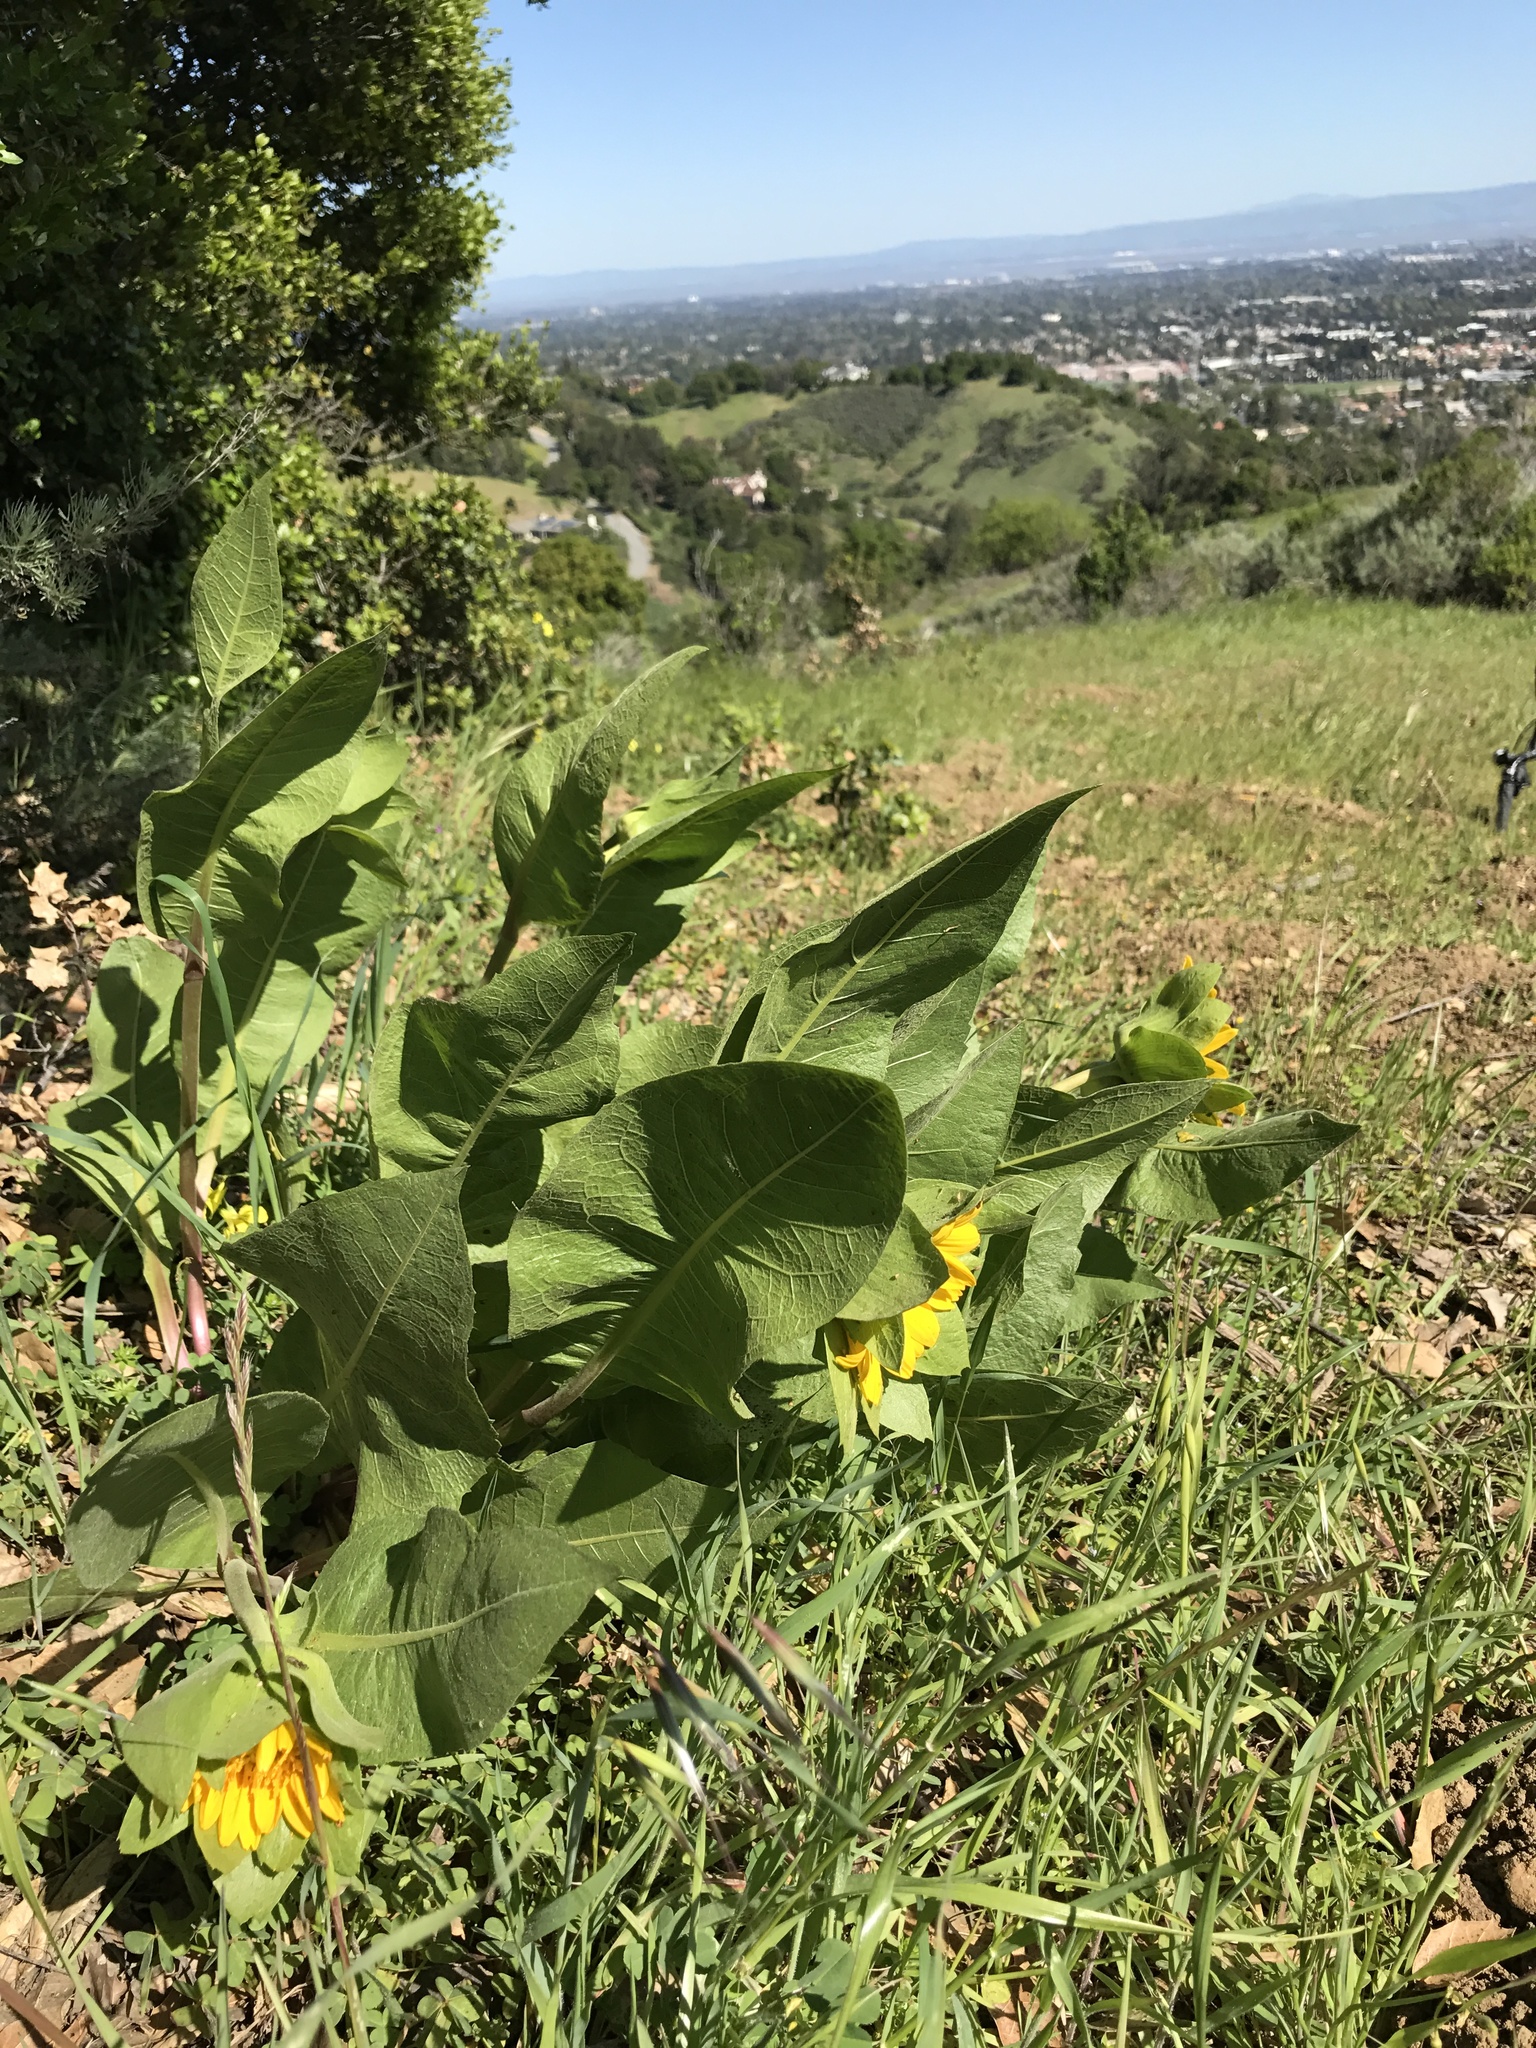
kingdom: Plantae
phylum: Tracheophyta
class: Magnoliopsida
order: Asterales
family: Asteraceae
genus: Wyethia
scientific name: Wyethia glabra
